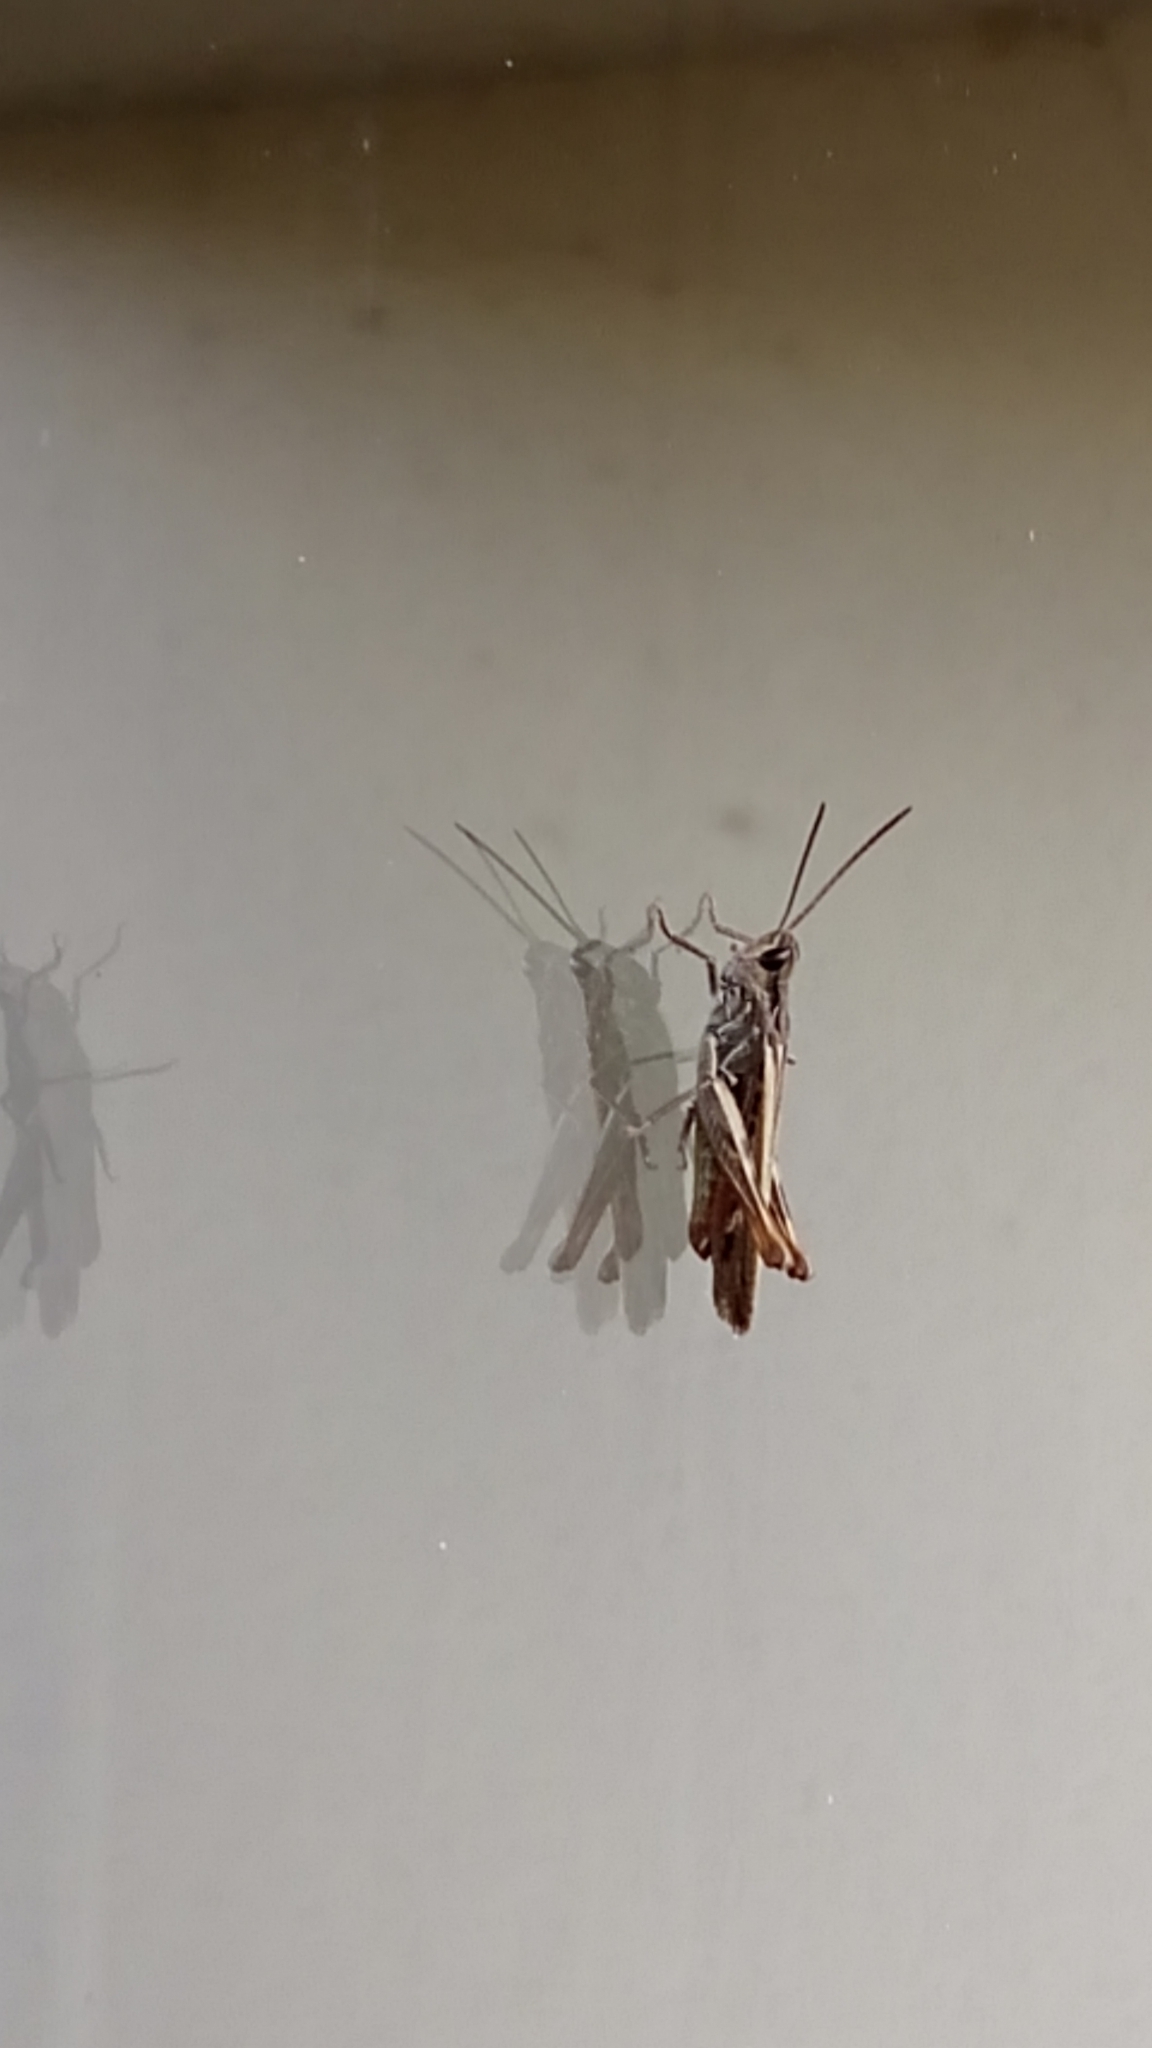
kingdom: Animalia
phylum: Arthropoda
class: Insecta
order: Orthoptera
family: Acrididae
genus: Chorthippus
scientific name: Chorthippus brunneus
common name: Field grasshopper
